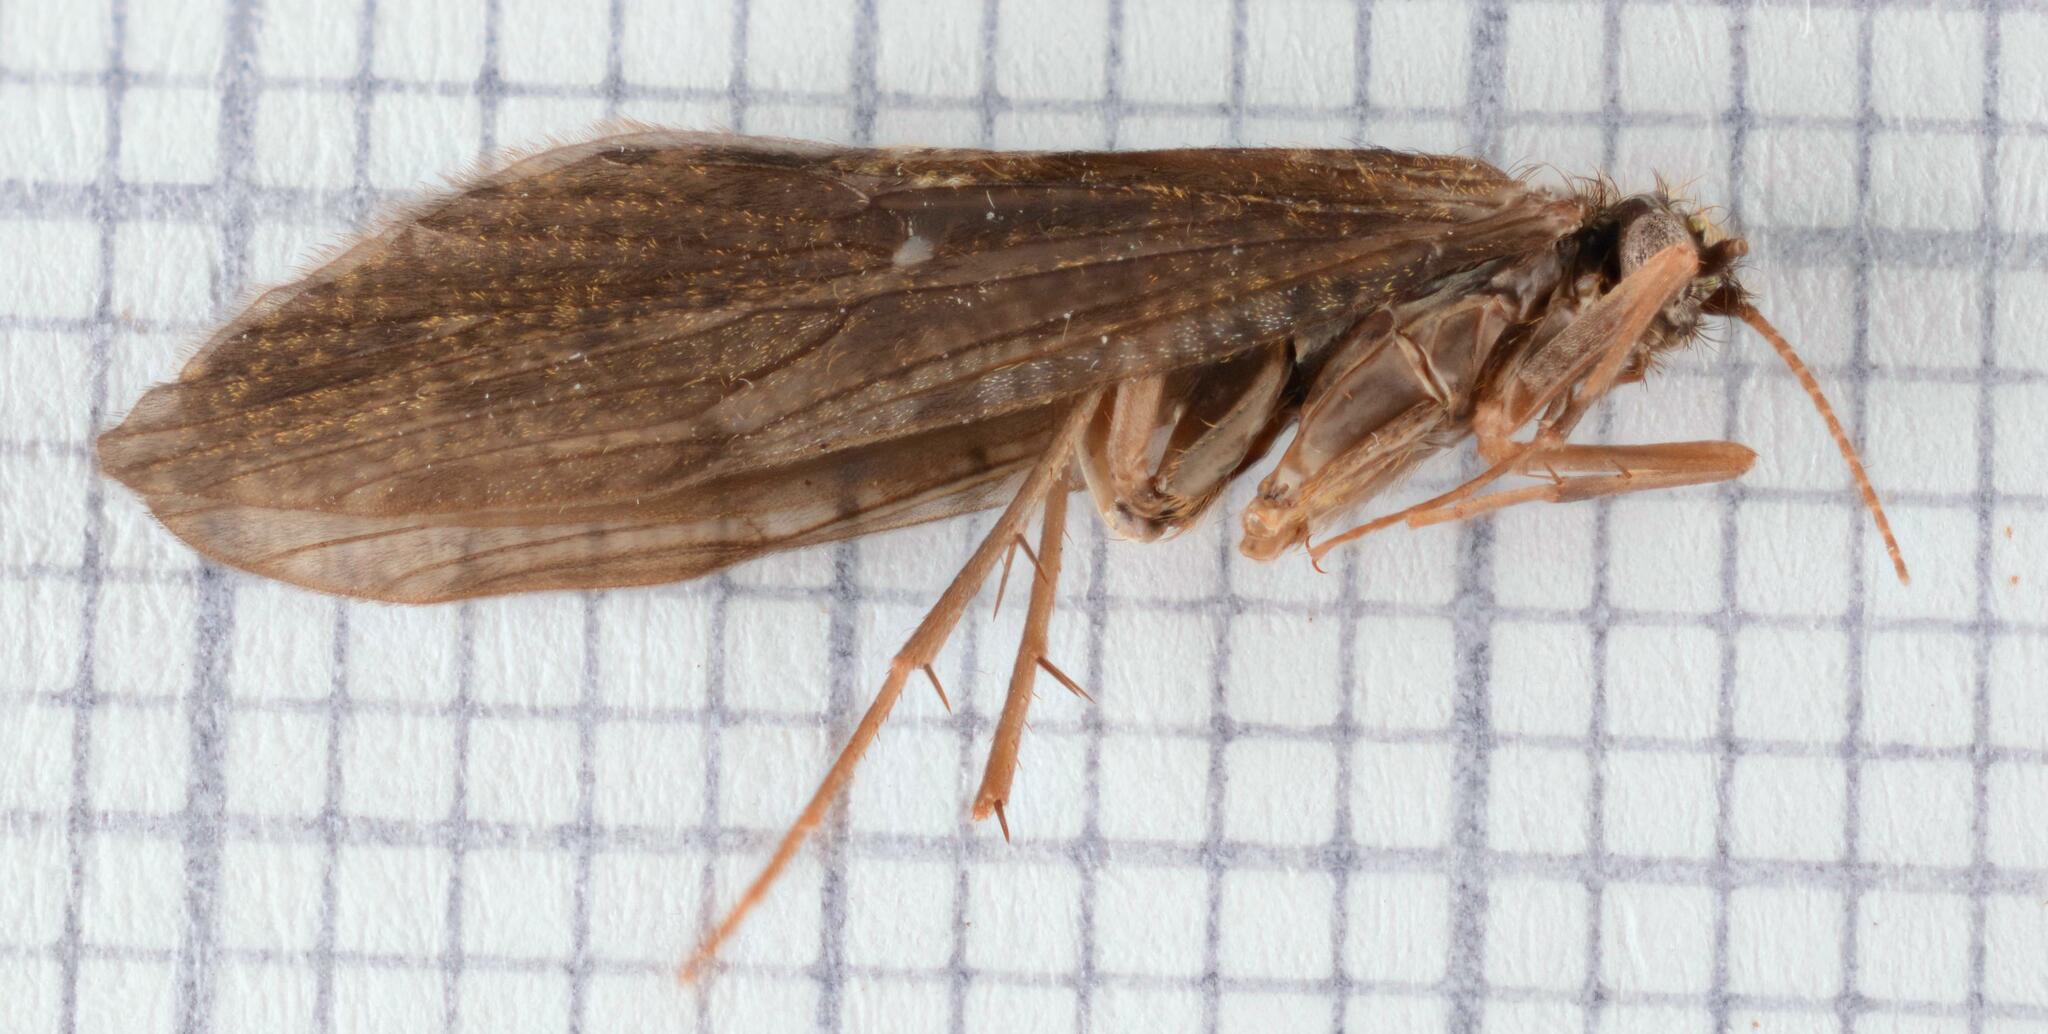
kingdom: Animalia
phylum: Arthropoda
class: Insecta
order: Trichoptera
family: Rhyacophilidae
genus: Rhyacophila
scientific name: Rhyacophila dorsalis
